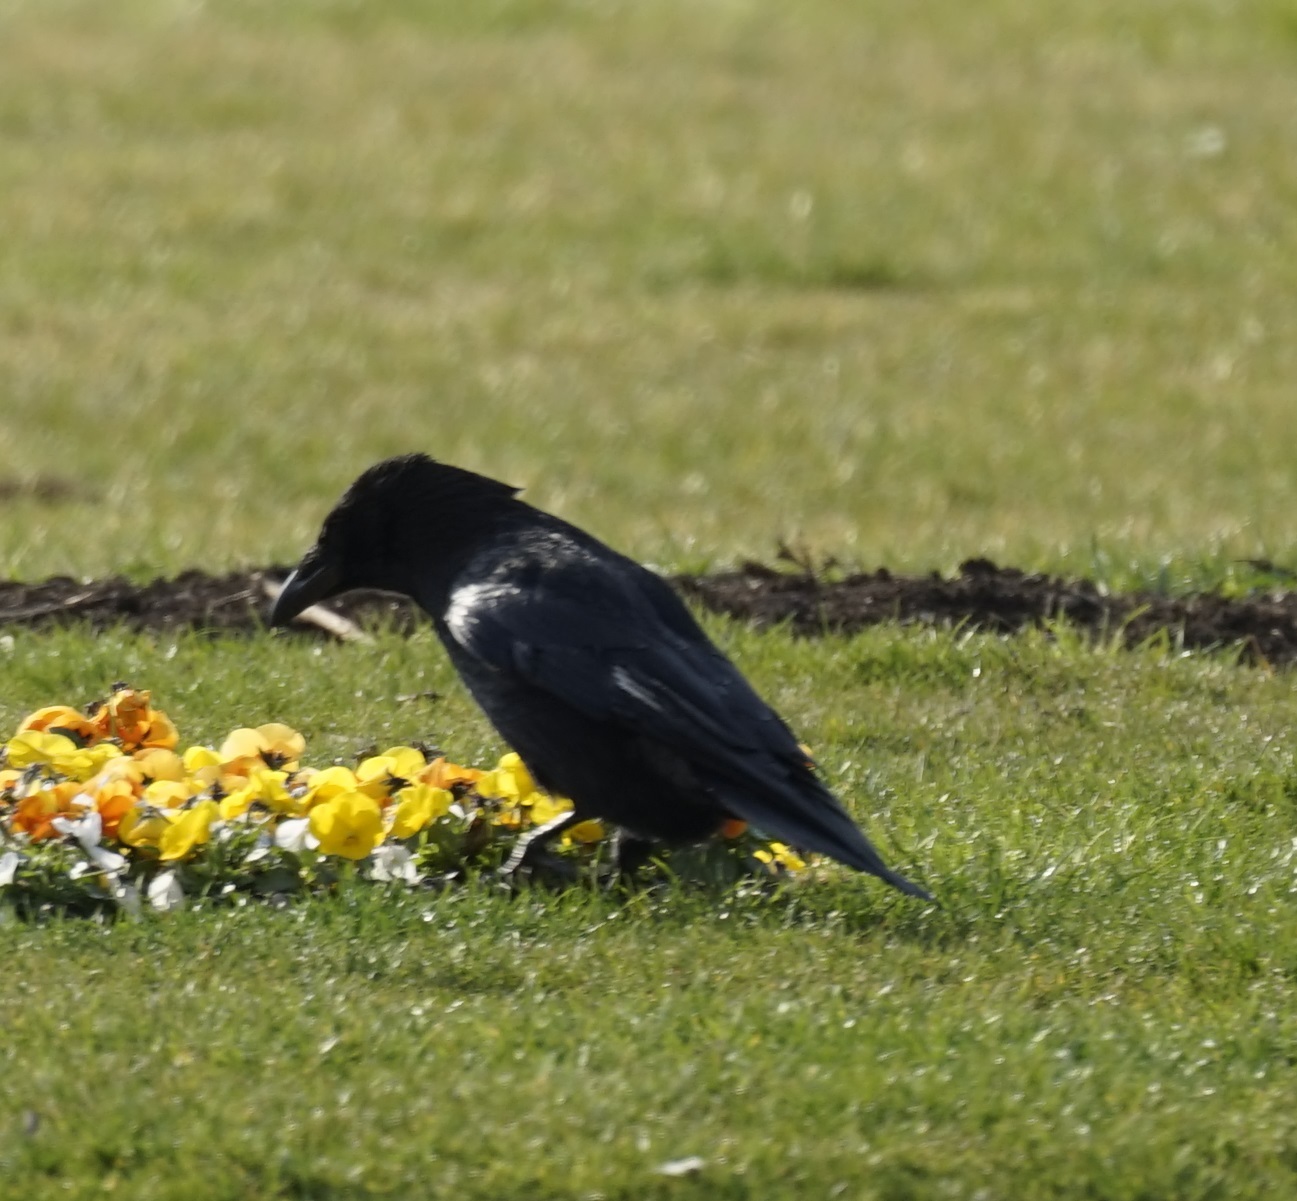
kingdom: Animalia
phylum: Chordata
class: Aves
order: Passeriformes
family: Corvidae
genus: Corvus
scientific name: Corvus corone
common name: Carrion crow
